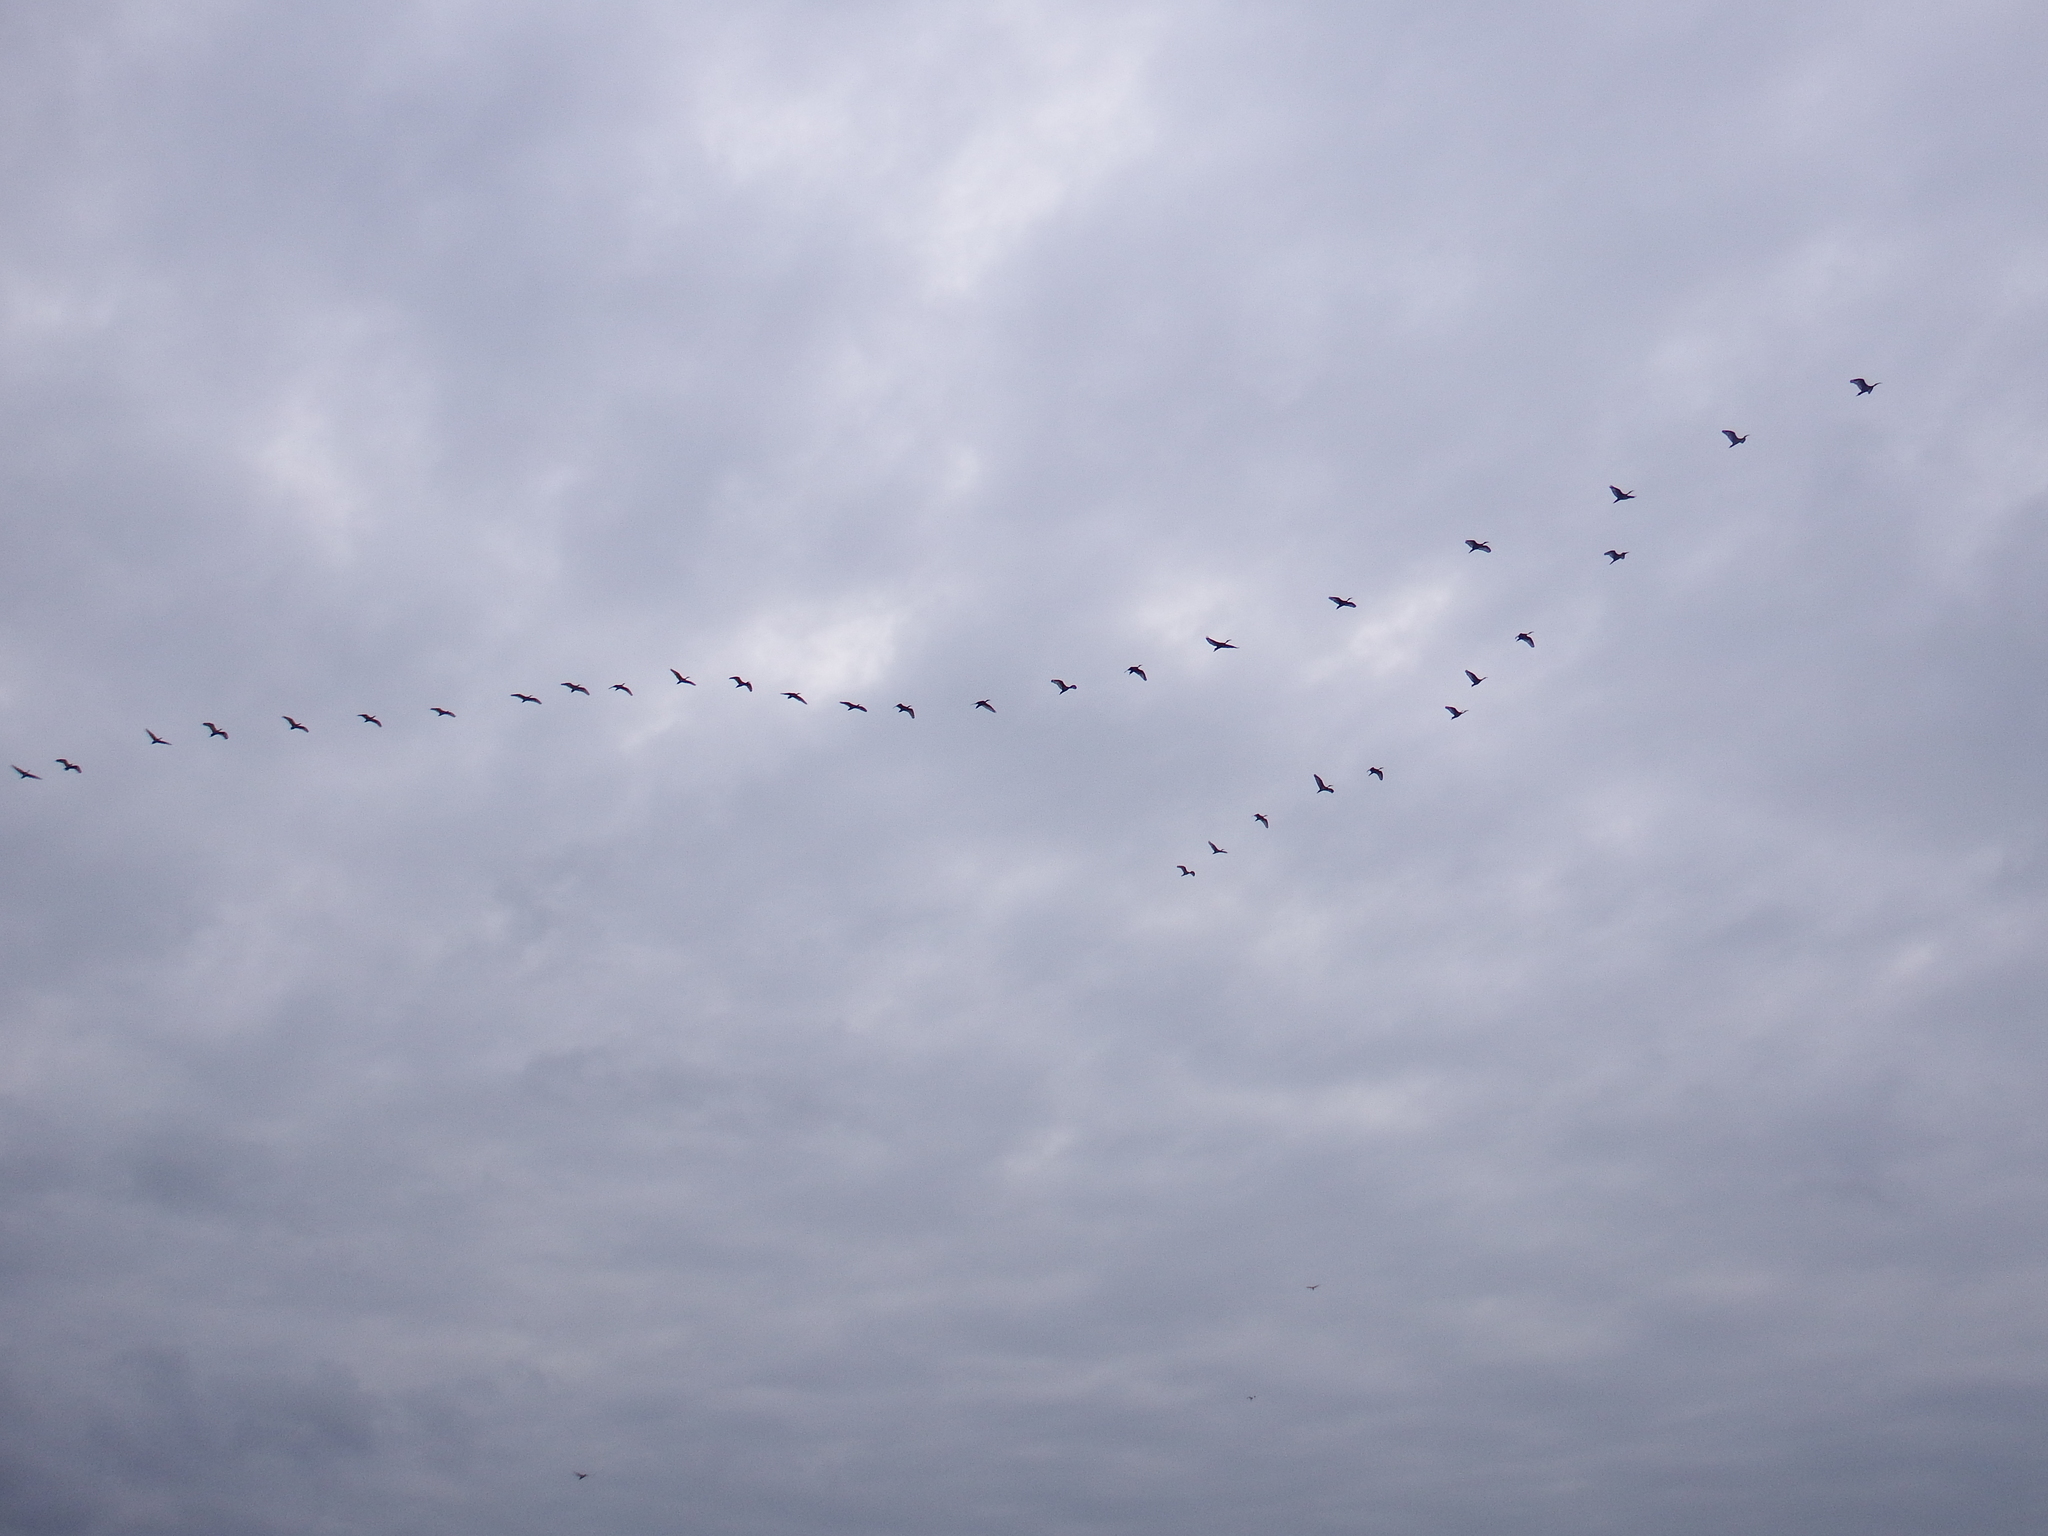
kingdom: Animalia
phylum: Chordata
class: Aves
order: Pelecaniformes
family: Threskiornithidae
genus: Threskiornis
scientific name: Threskiornis aethiopicus
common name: Sacred ibis
